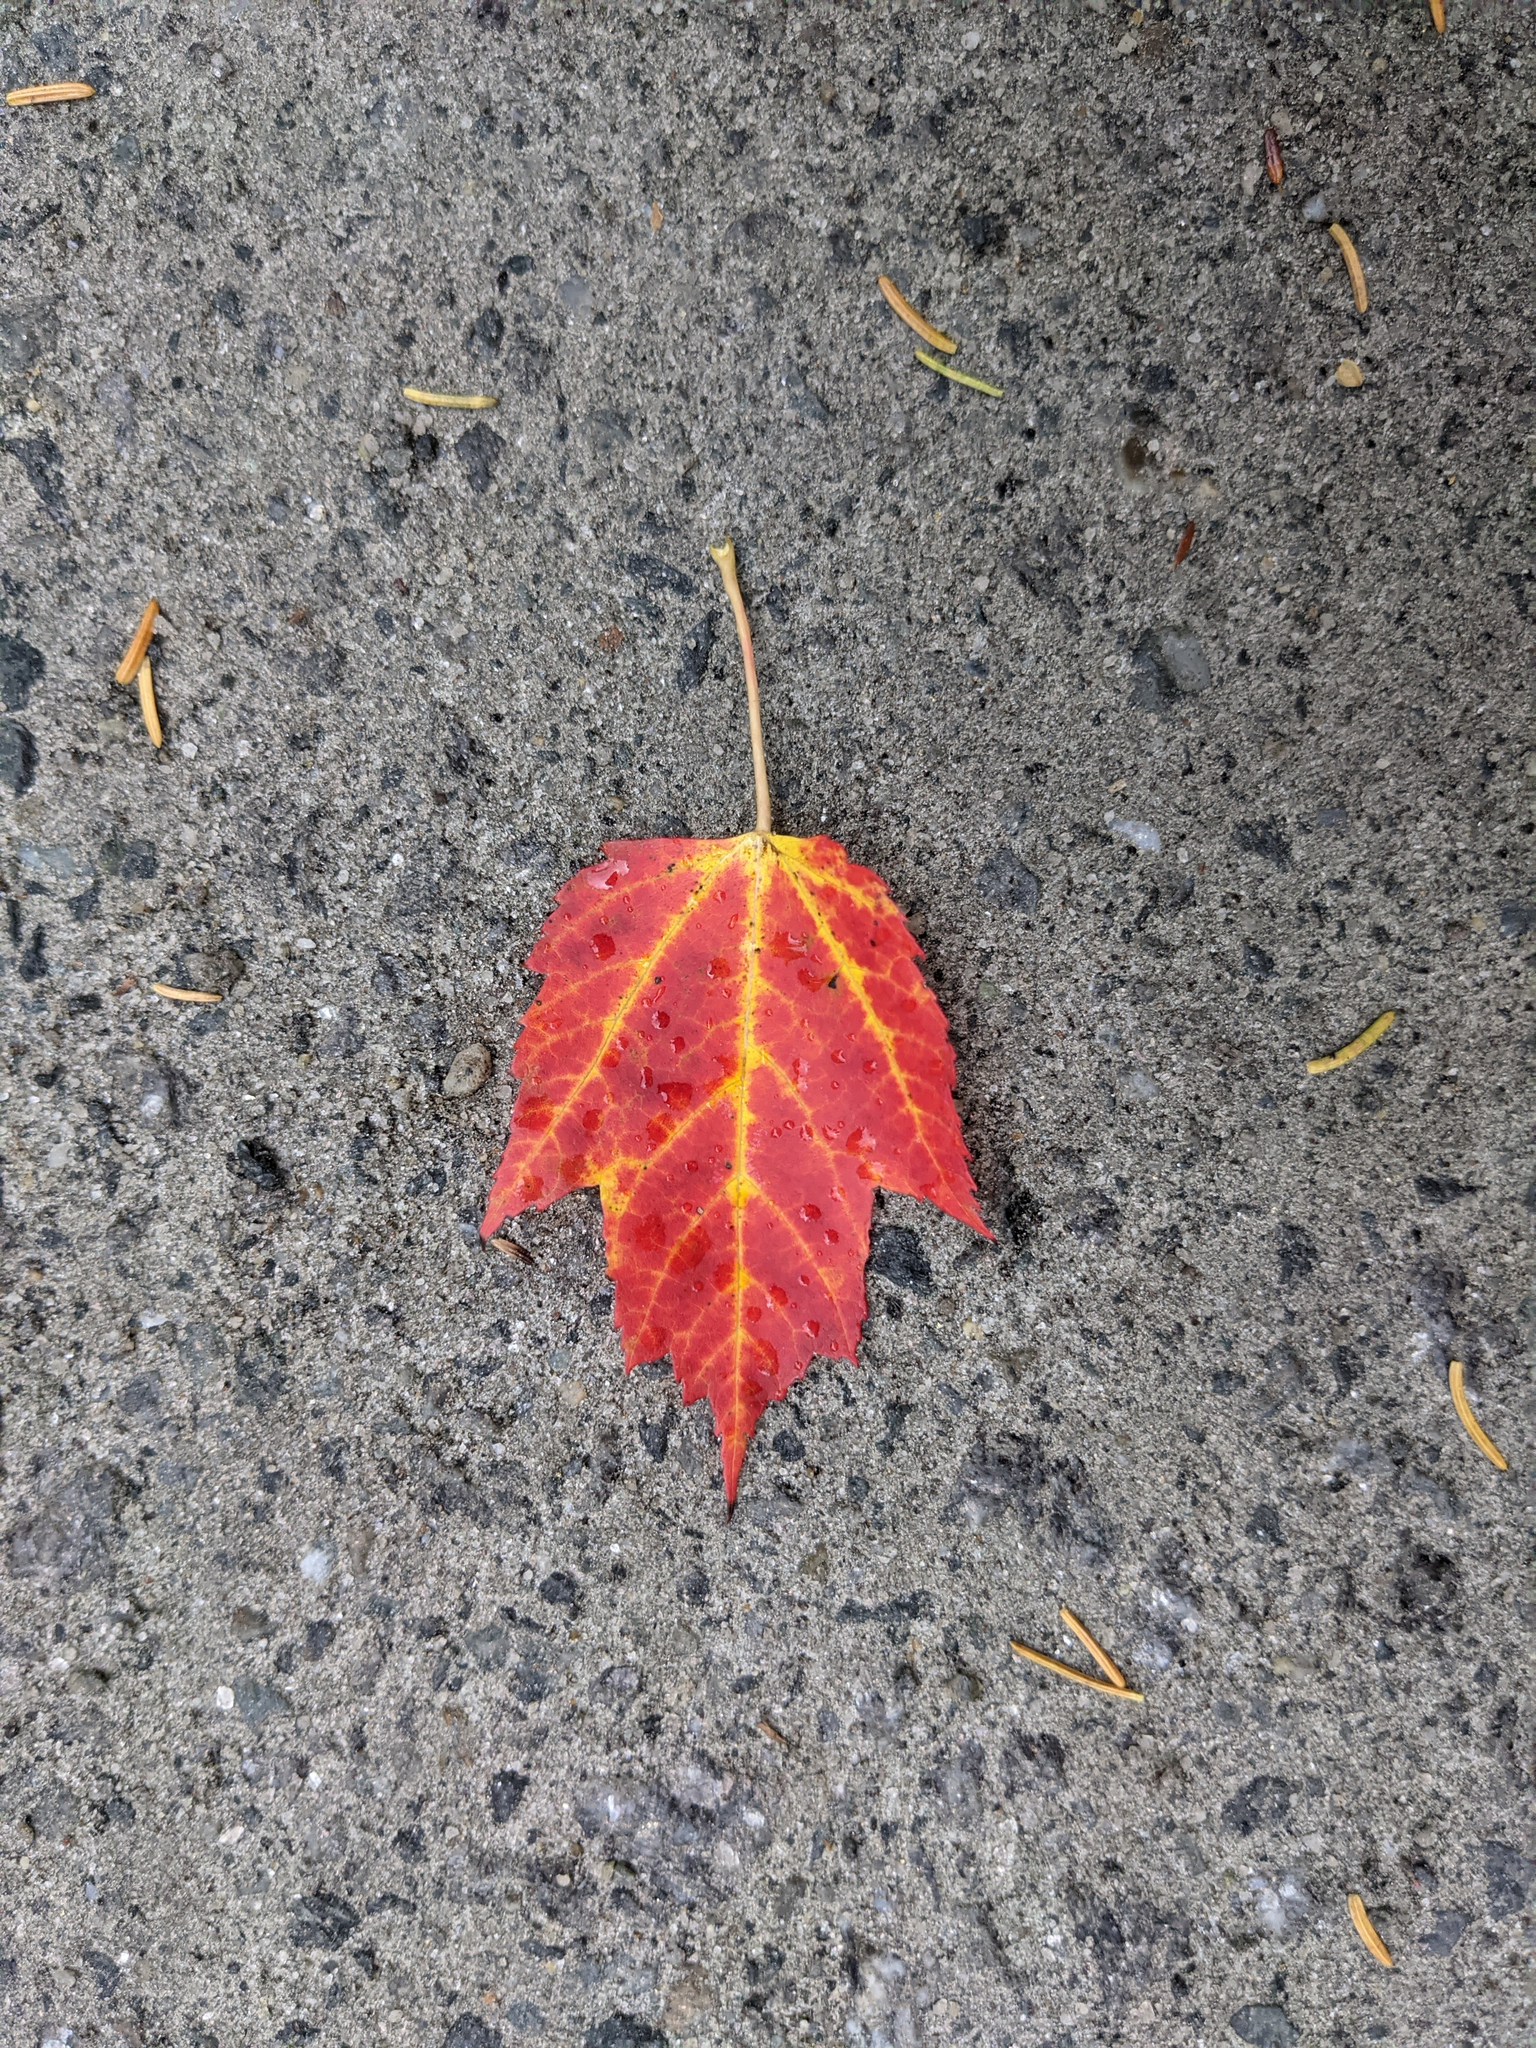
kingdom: Plantae
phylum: Tracheophyta
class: Magnoliopsida
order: Sapindales
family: Sapindaceae
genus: Acer
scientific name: Acer rubrum
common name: Red maple
